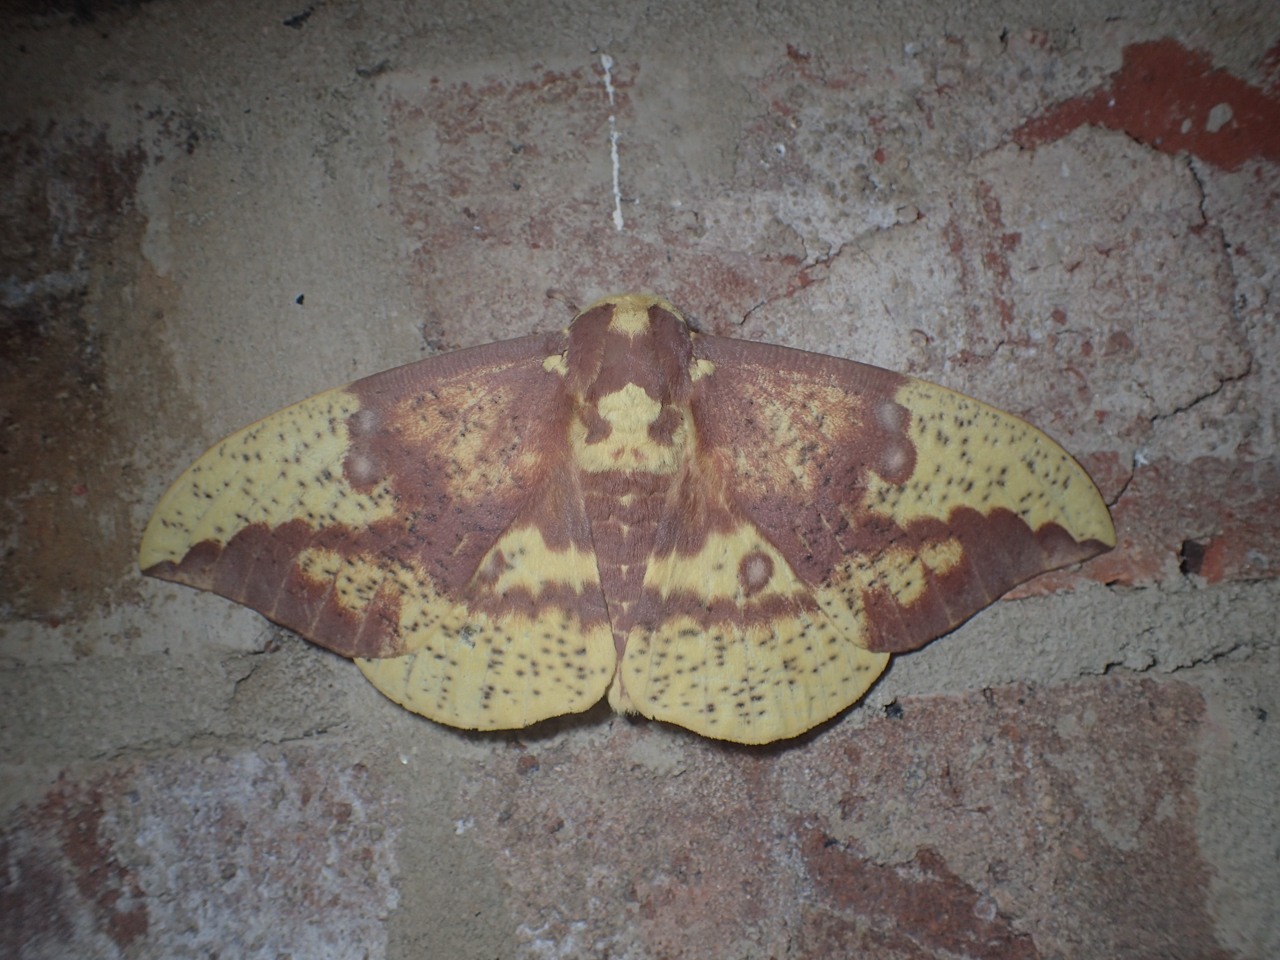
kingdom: Animalia
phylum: Arthropoda
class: Insecta
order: Lepidoptera
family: Saturniidae
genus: Eacles
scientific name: Eacles imperialis
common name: Imperial moth
